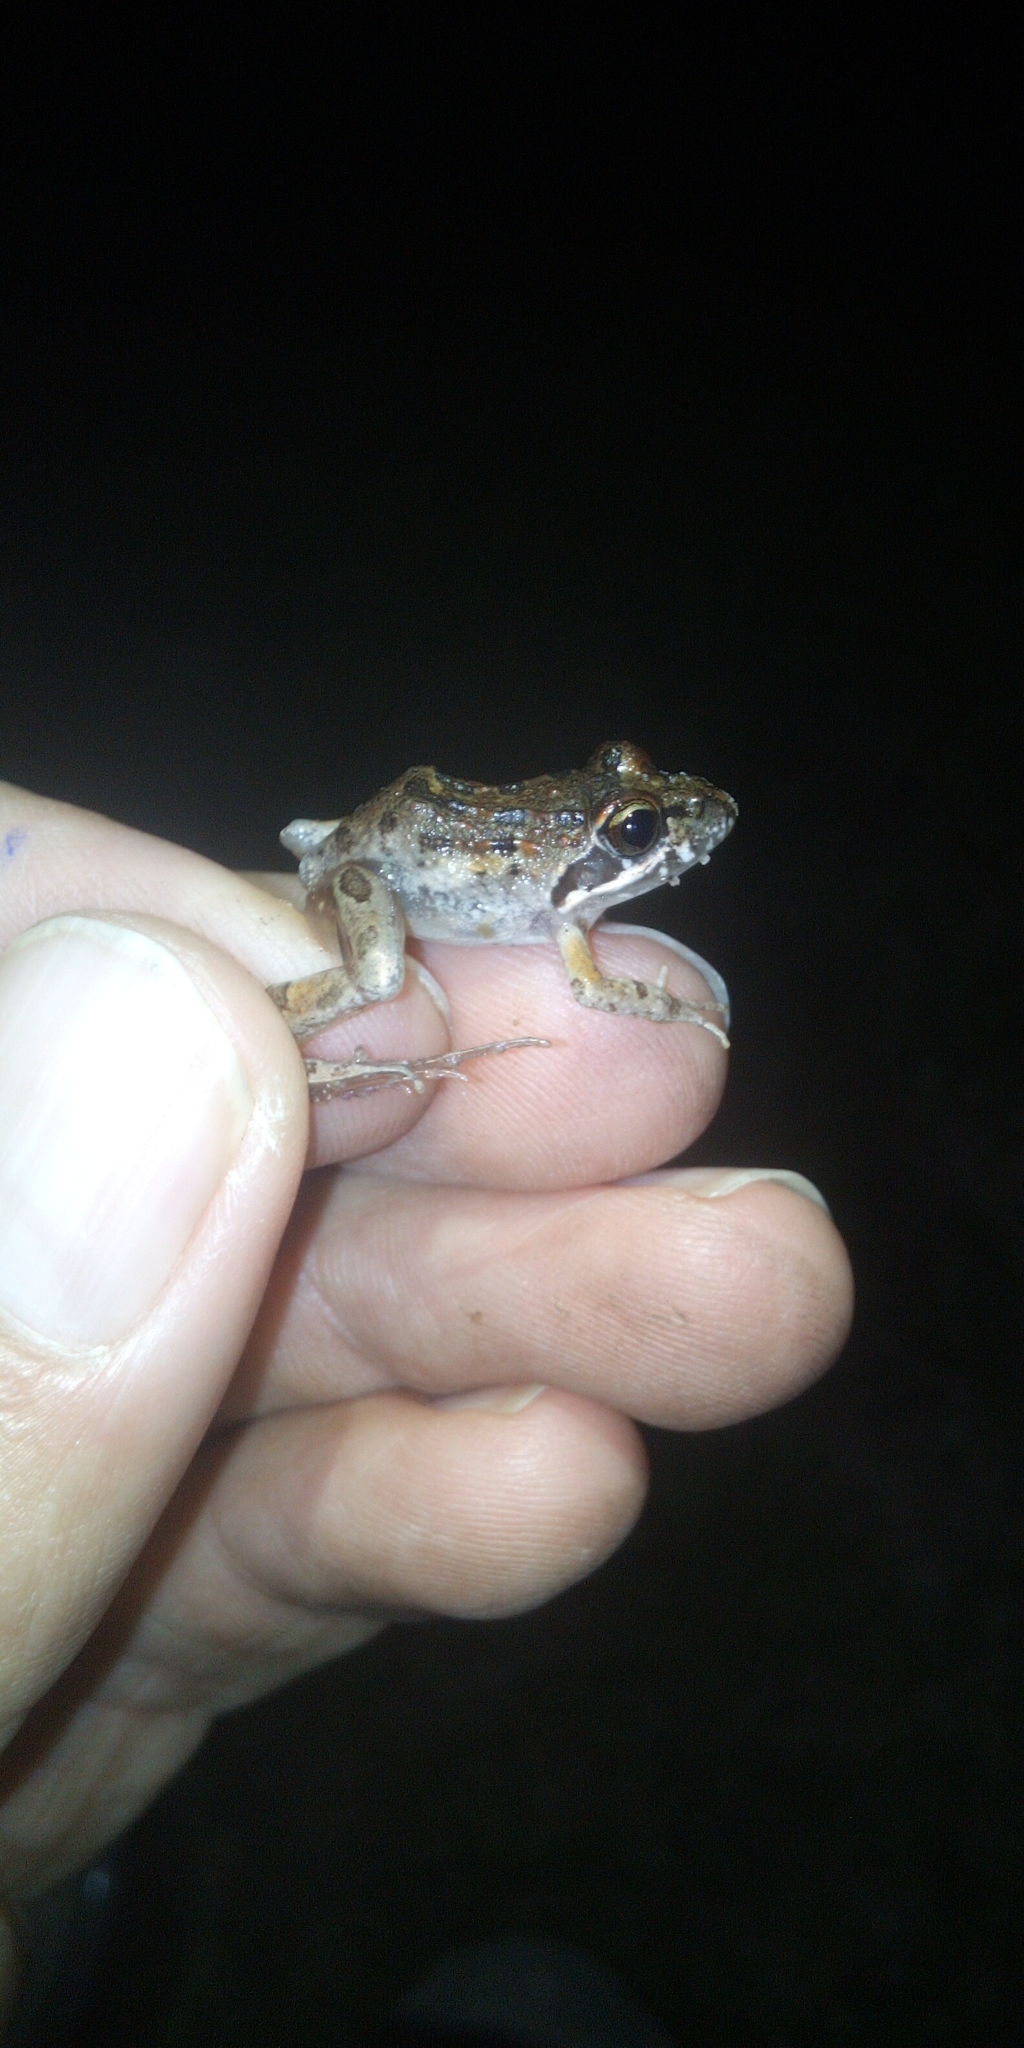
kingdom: Animalia
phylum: Chordata
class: Amphibia
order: Anura
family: Pyxicephalidae
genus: Strongylopus
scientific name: Strongylopus grayii
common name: Gray's stream frog
